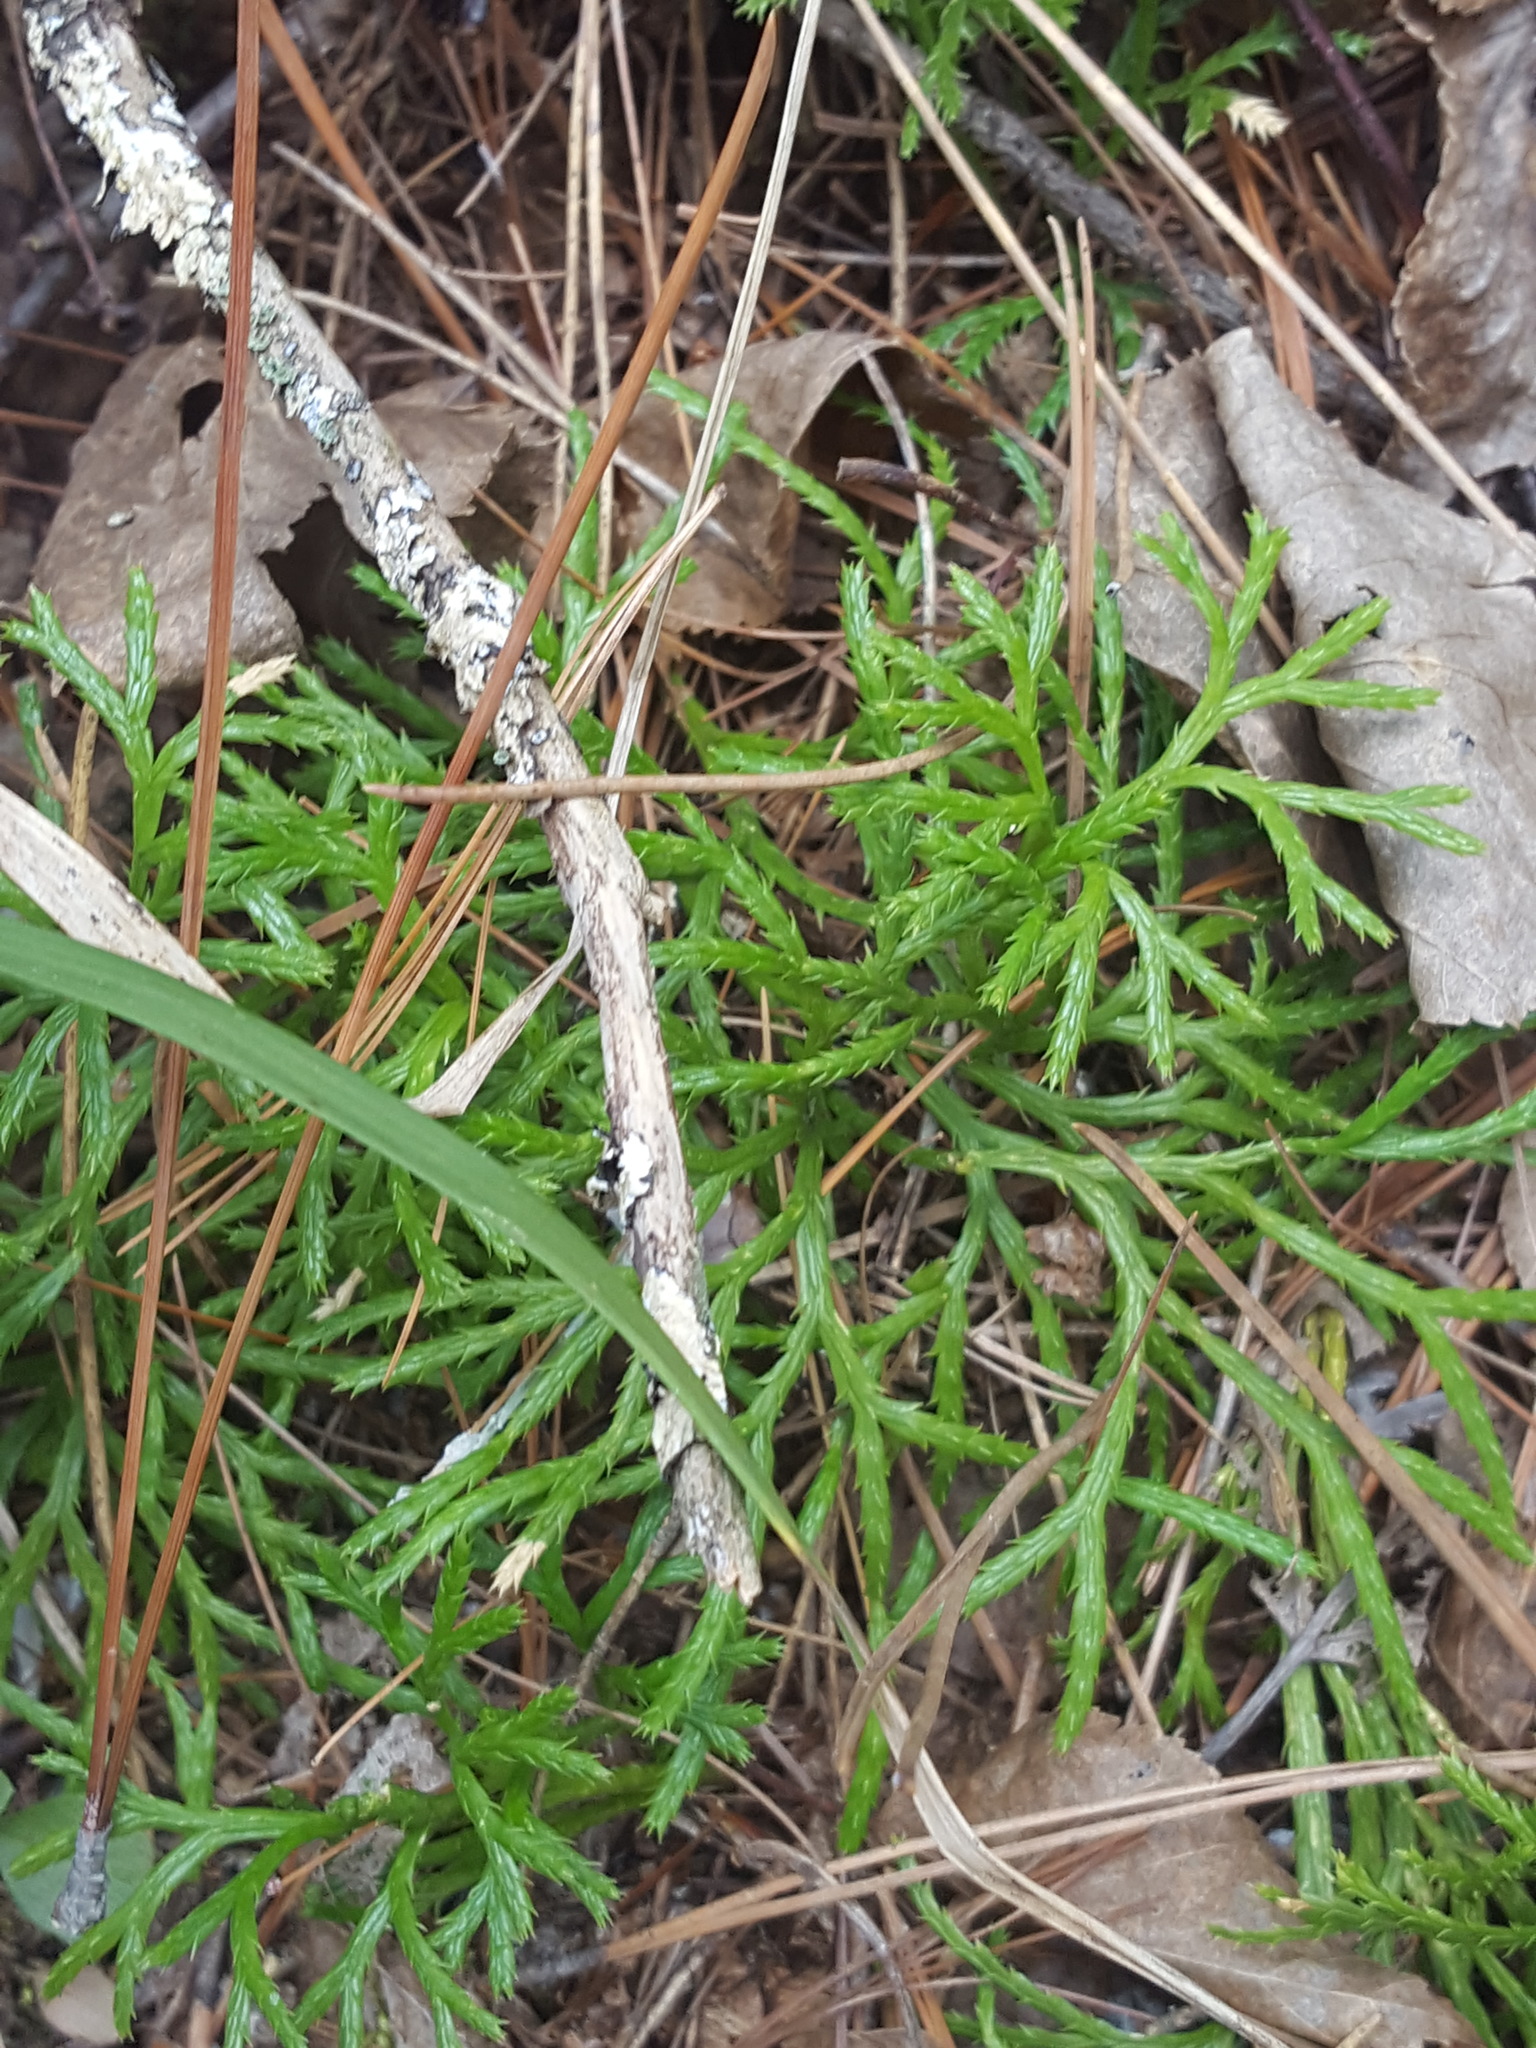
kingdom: Plantae
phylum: Tracheophyta
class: Lycopodiopsida
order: Lycopodiales
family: Lycopodiaceae
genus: Diphasiastrum
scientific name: Diphasiastrum complanatum
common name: Northern running-pine
